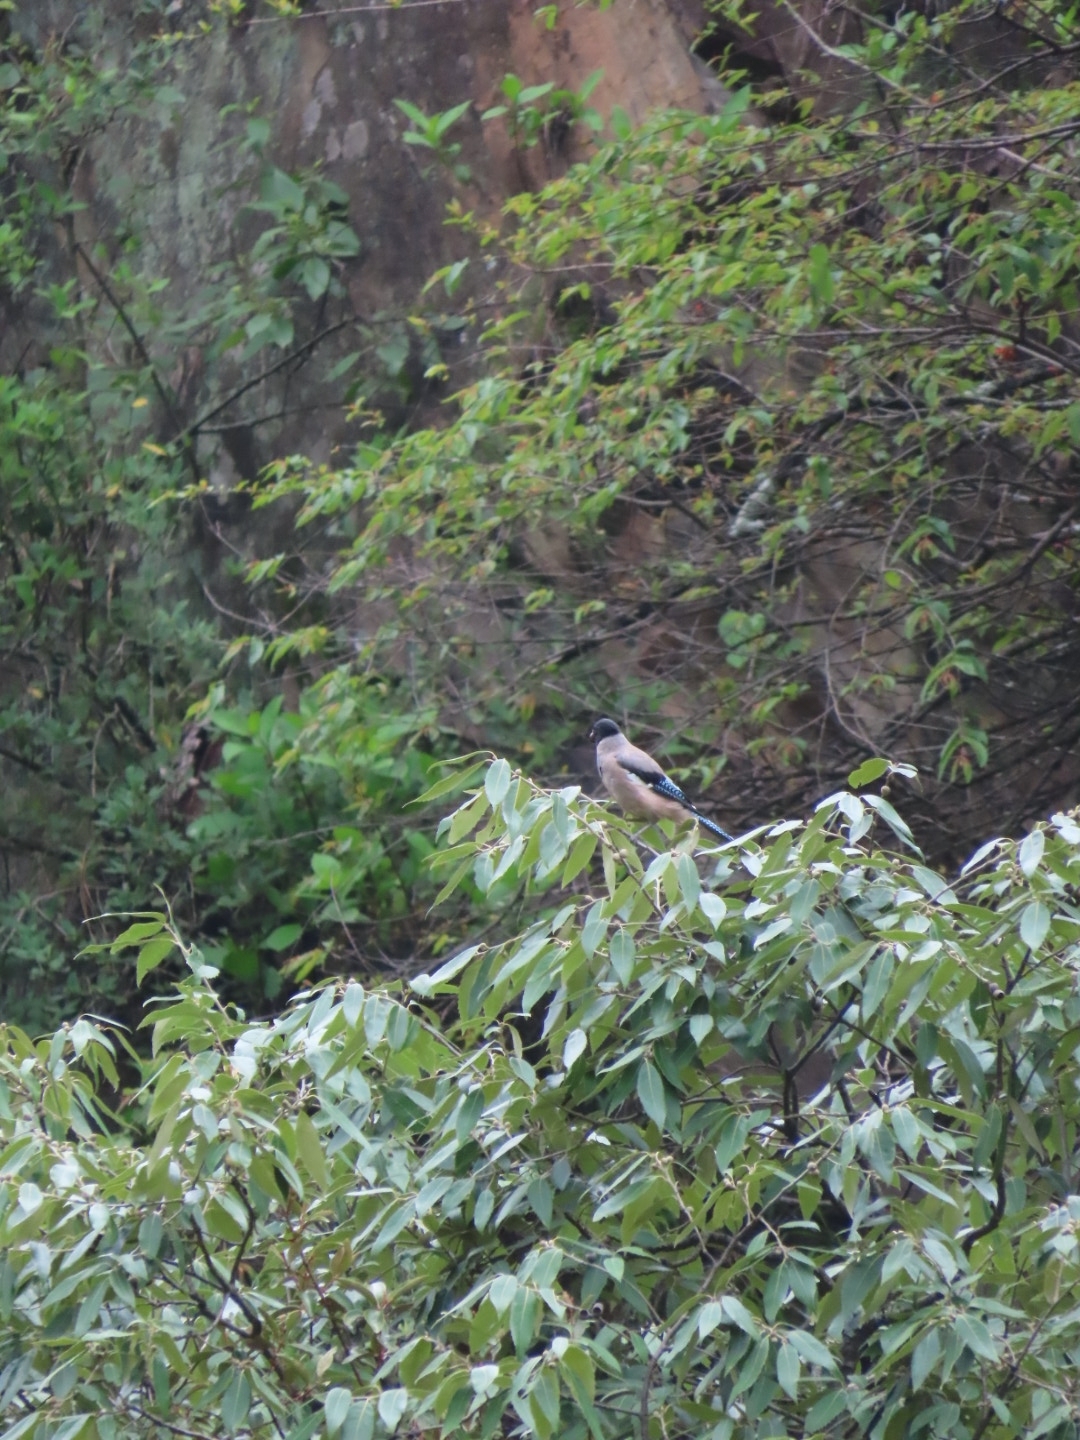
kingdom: Animalia
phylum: Chordata
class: Aves
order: Passeriformes
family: Corvidae
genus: Garrulus
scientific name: Garrulus lanceolatus
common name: Black-headed jay
